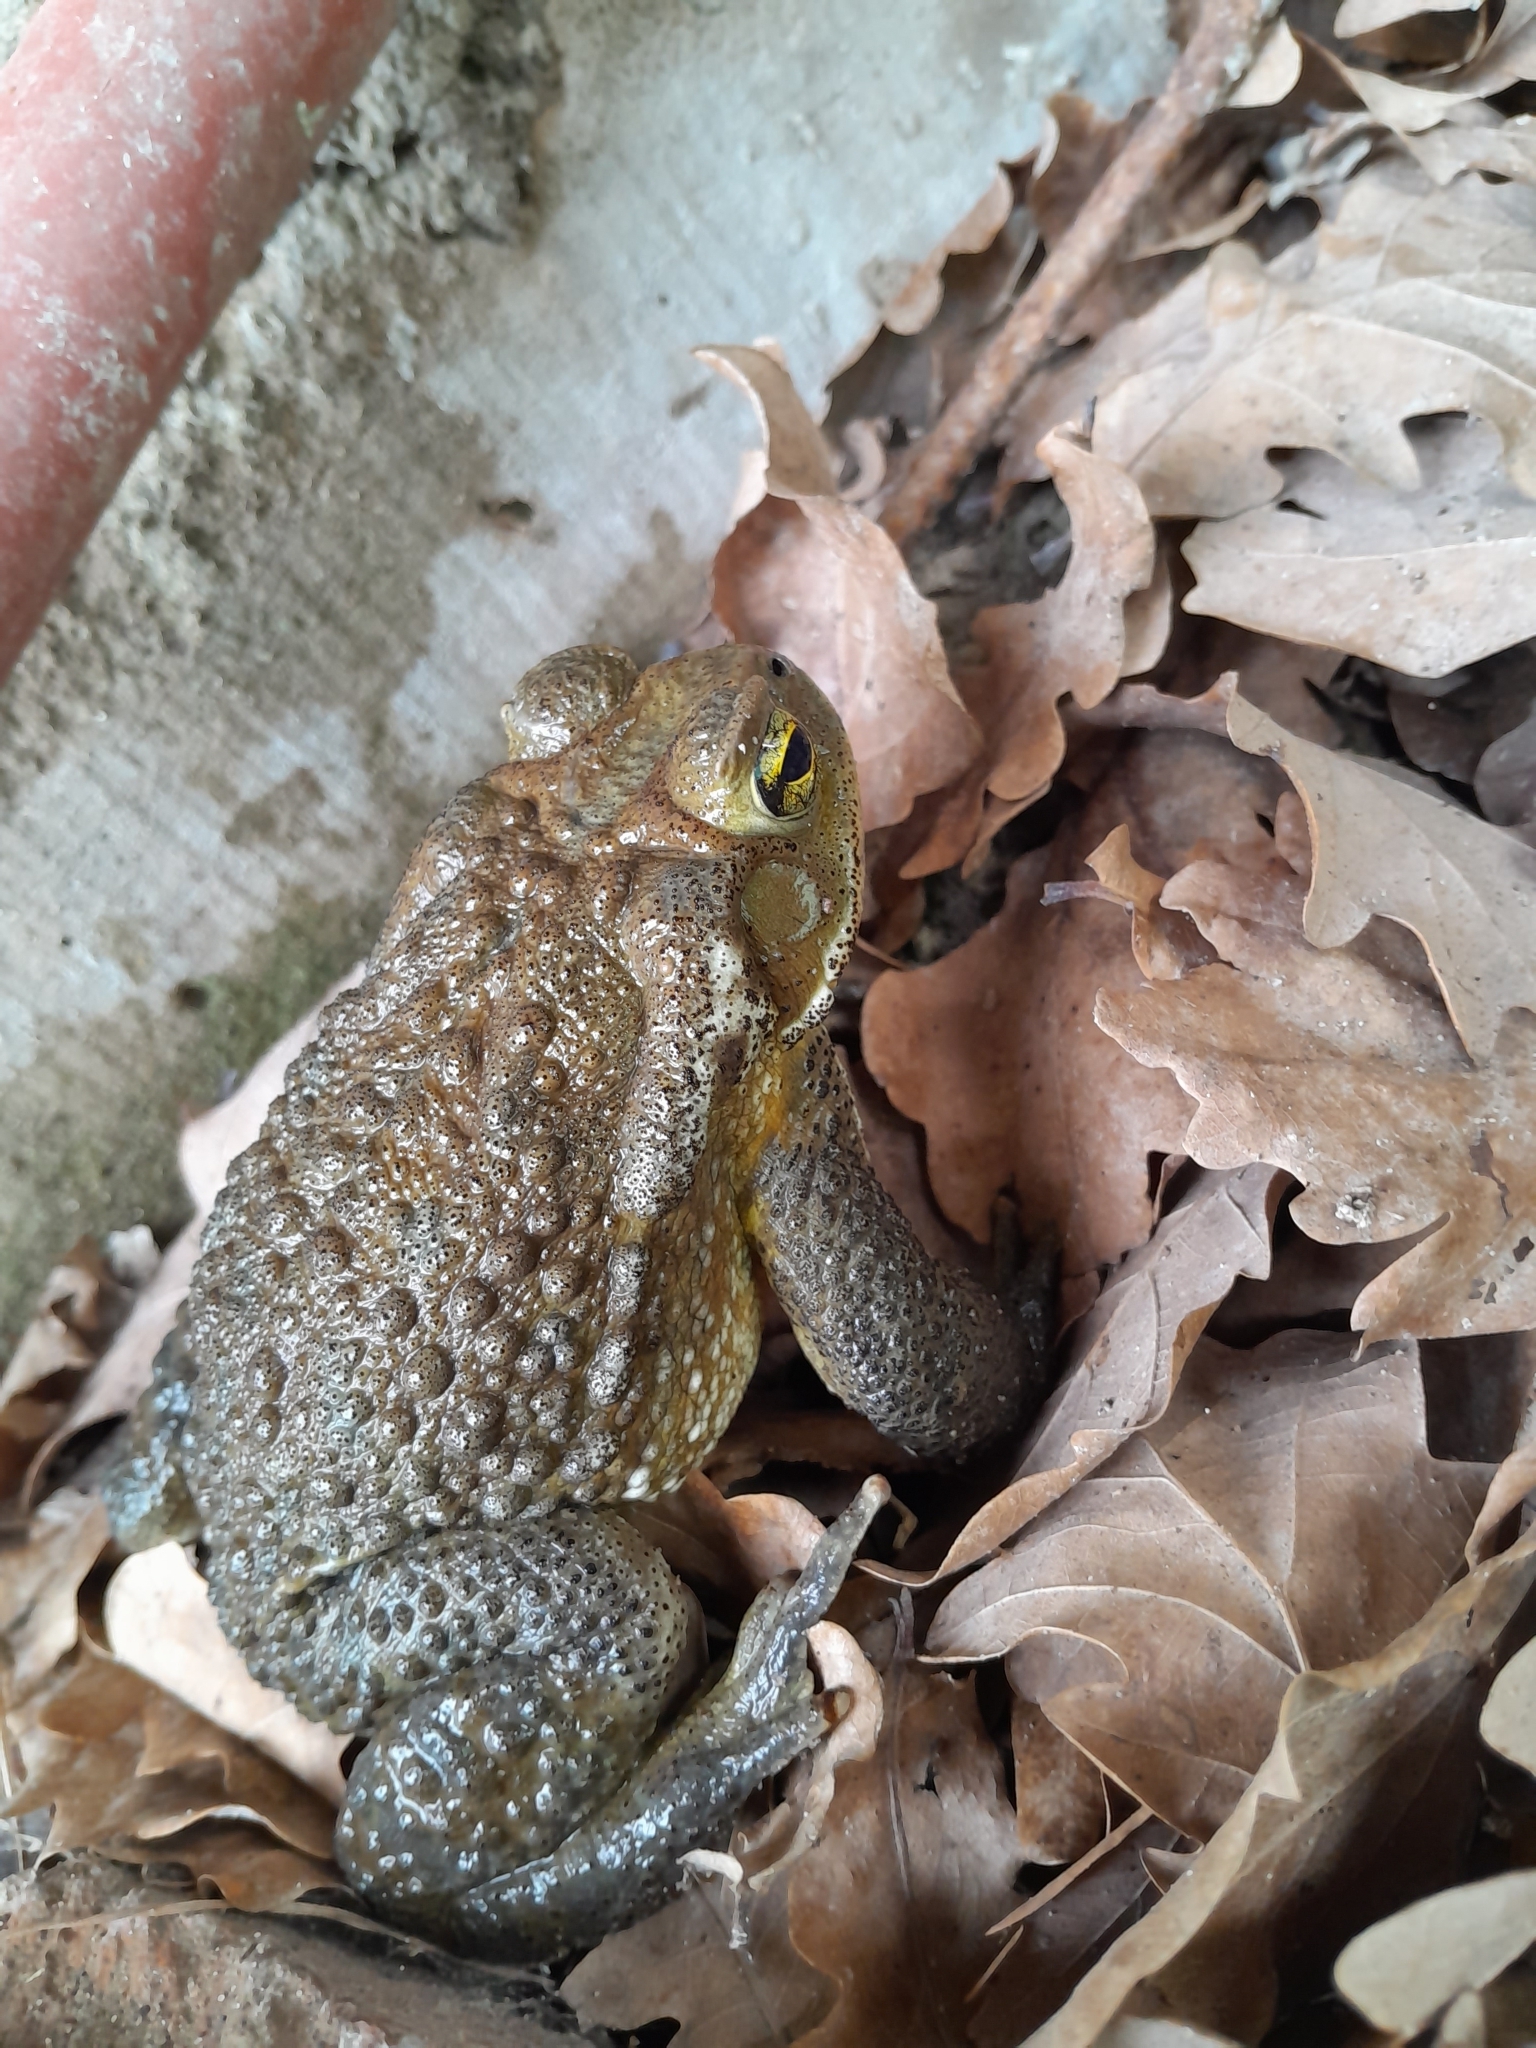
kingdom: Animalia
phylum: Chordata
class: Amphibia
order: Anura
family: Bufonidae
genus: Rhinella
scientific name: Rhinella arenarum
